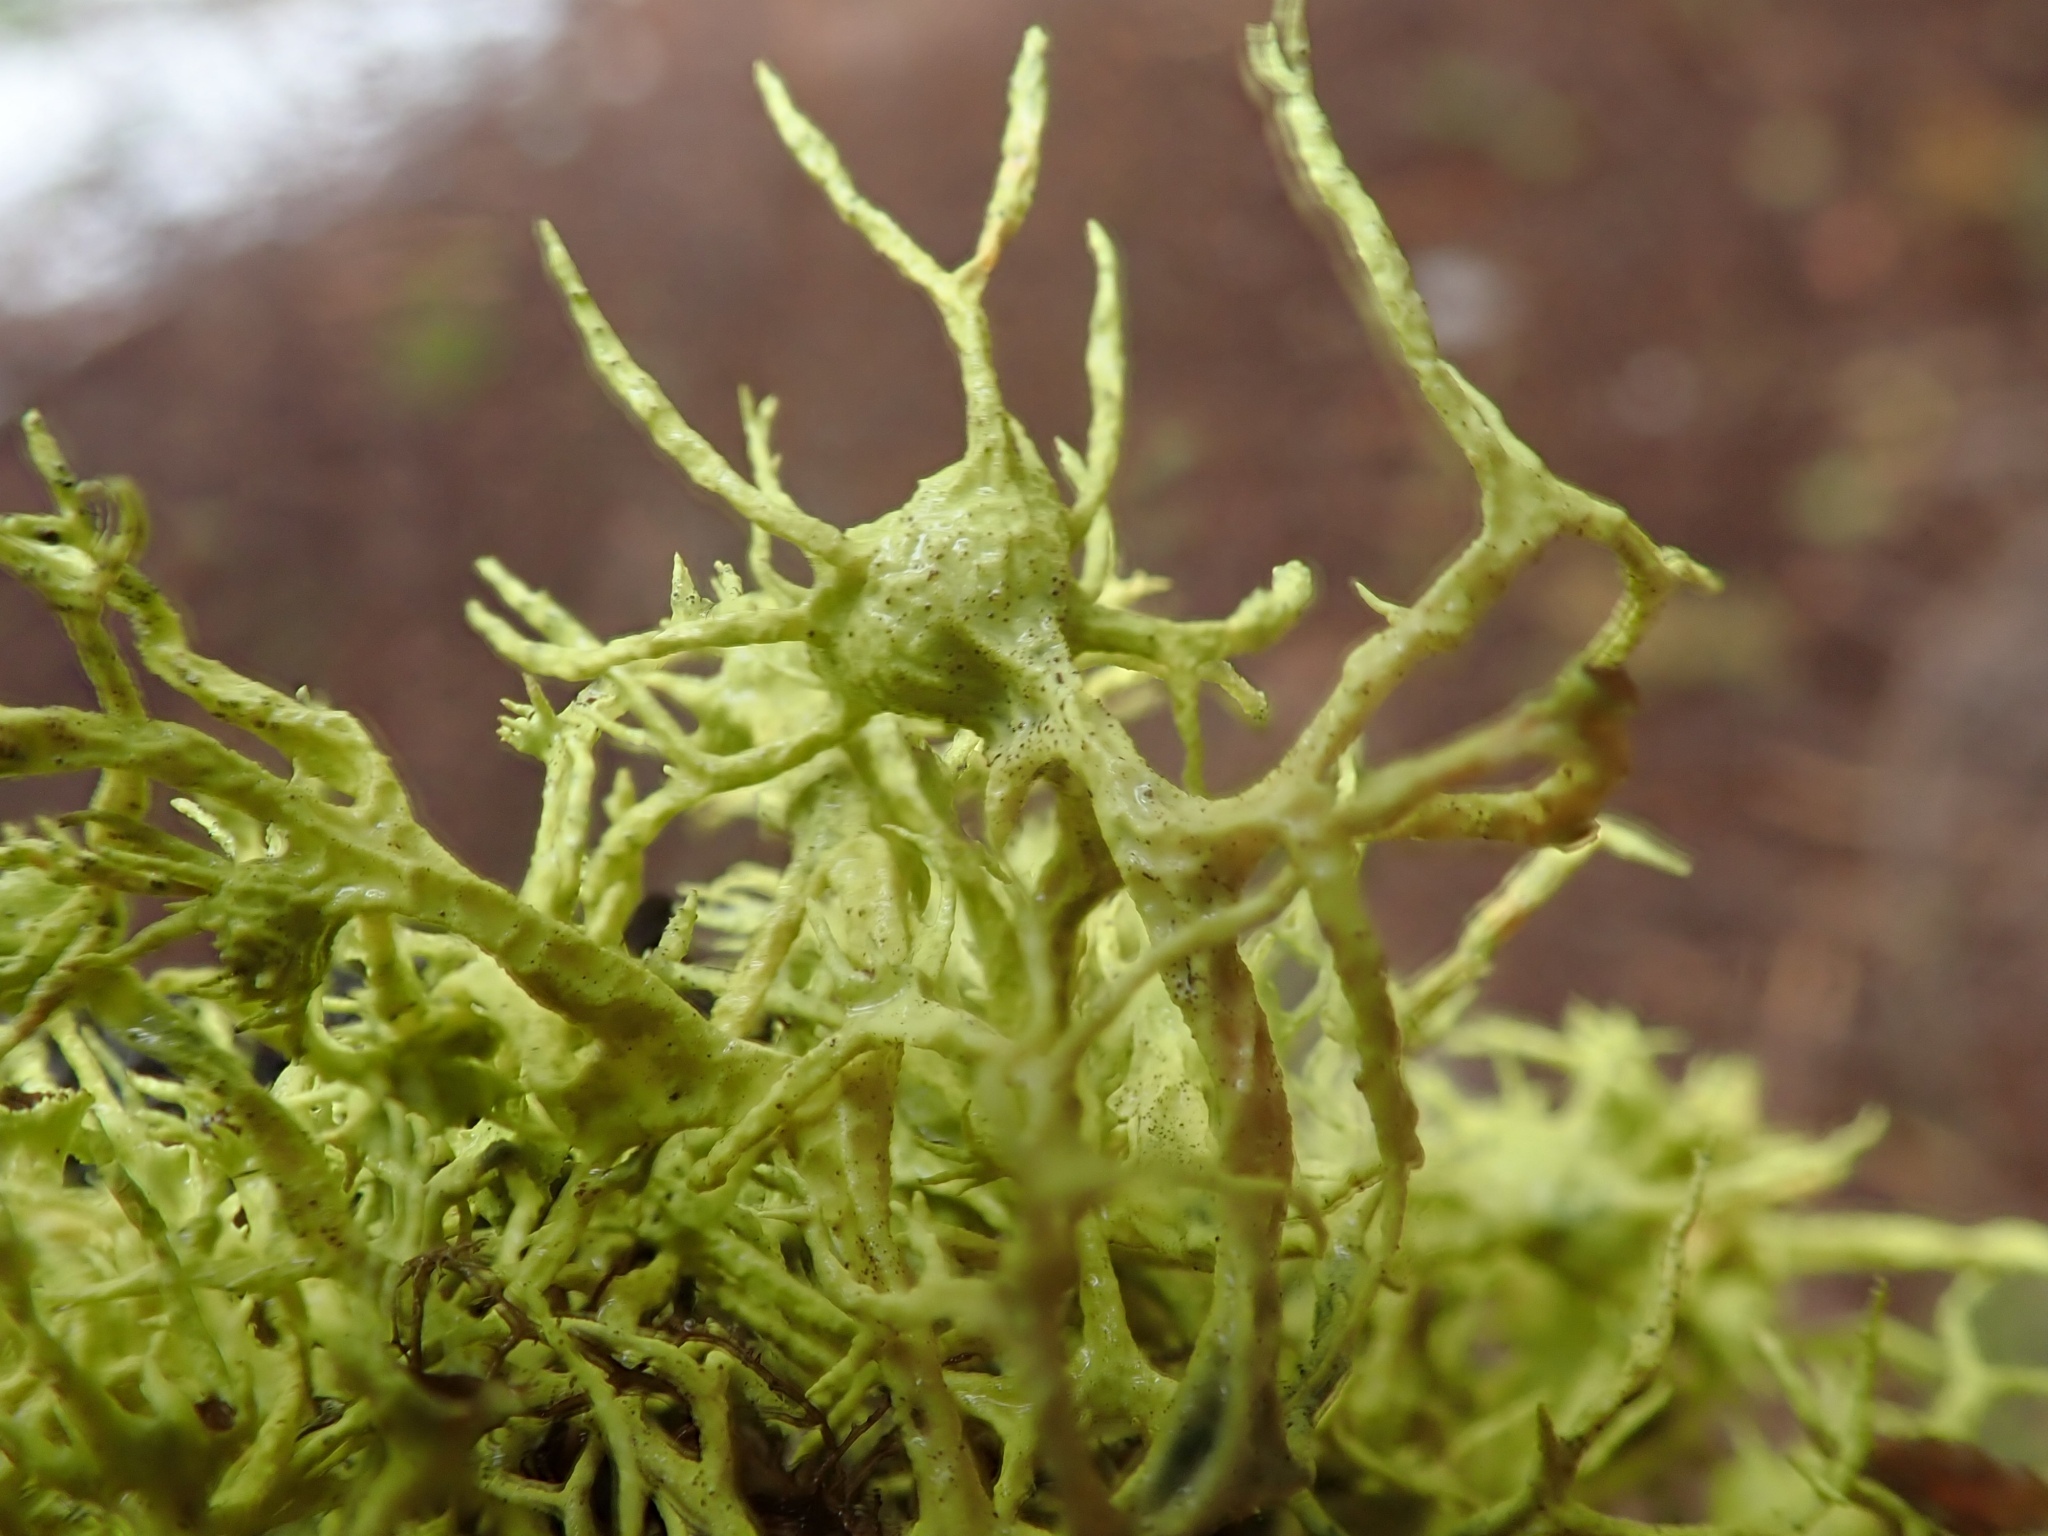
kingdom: Fungi
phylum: Ascomycota
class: Lecanoromycetes
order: Lecanorales
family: Parmeliaceae
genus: Letharia
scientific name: Letharia columbiana
